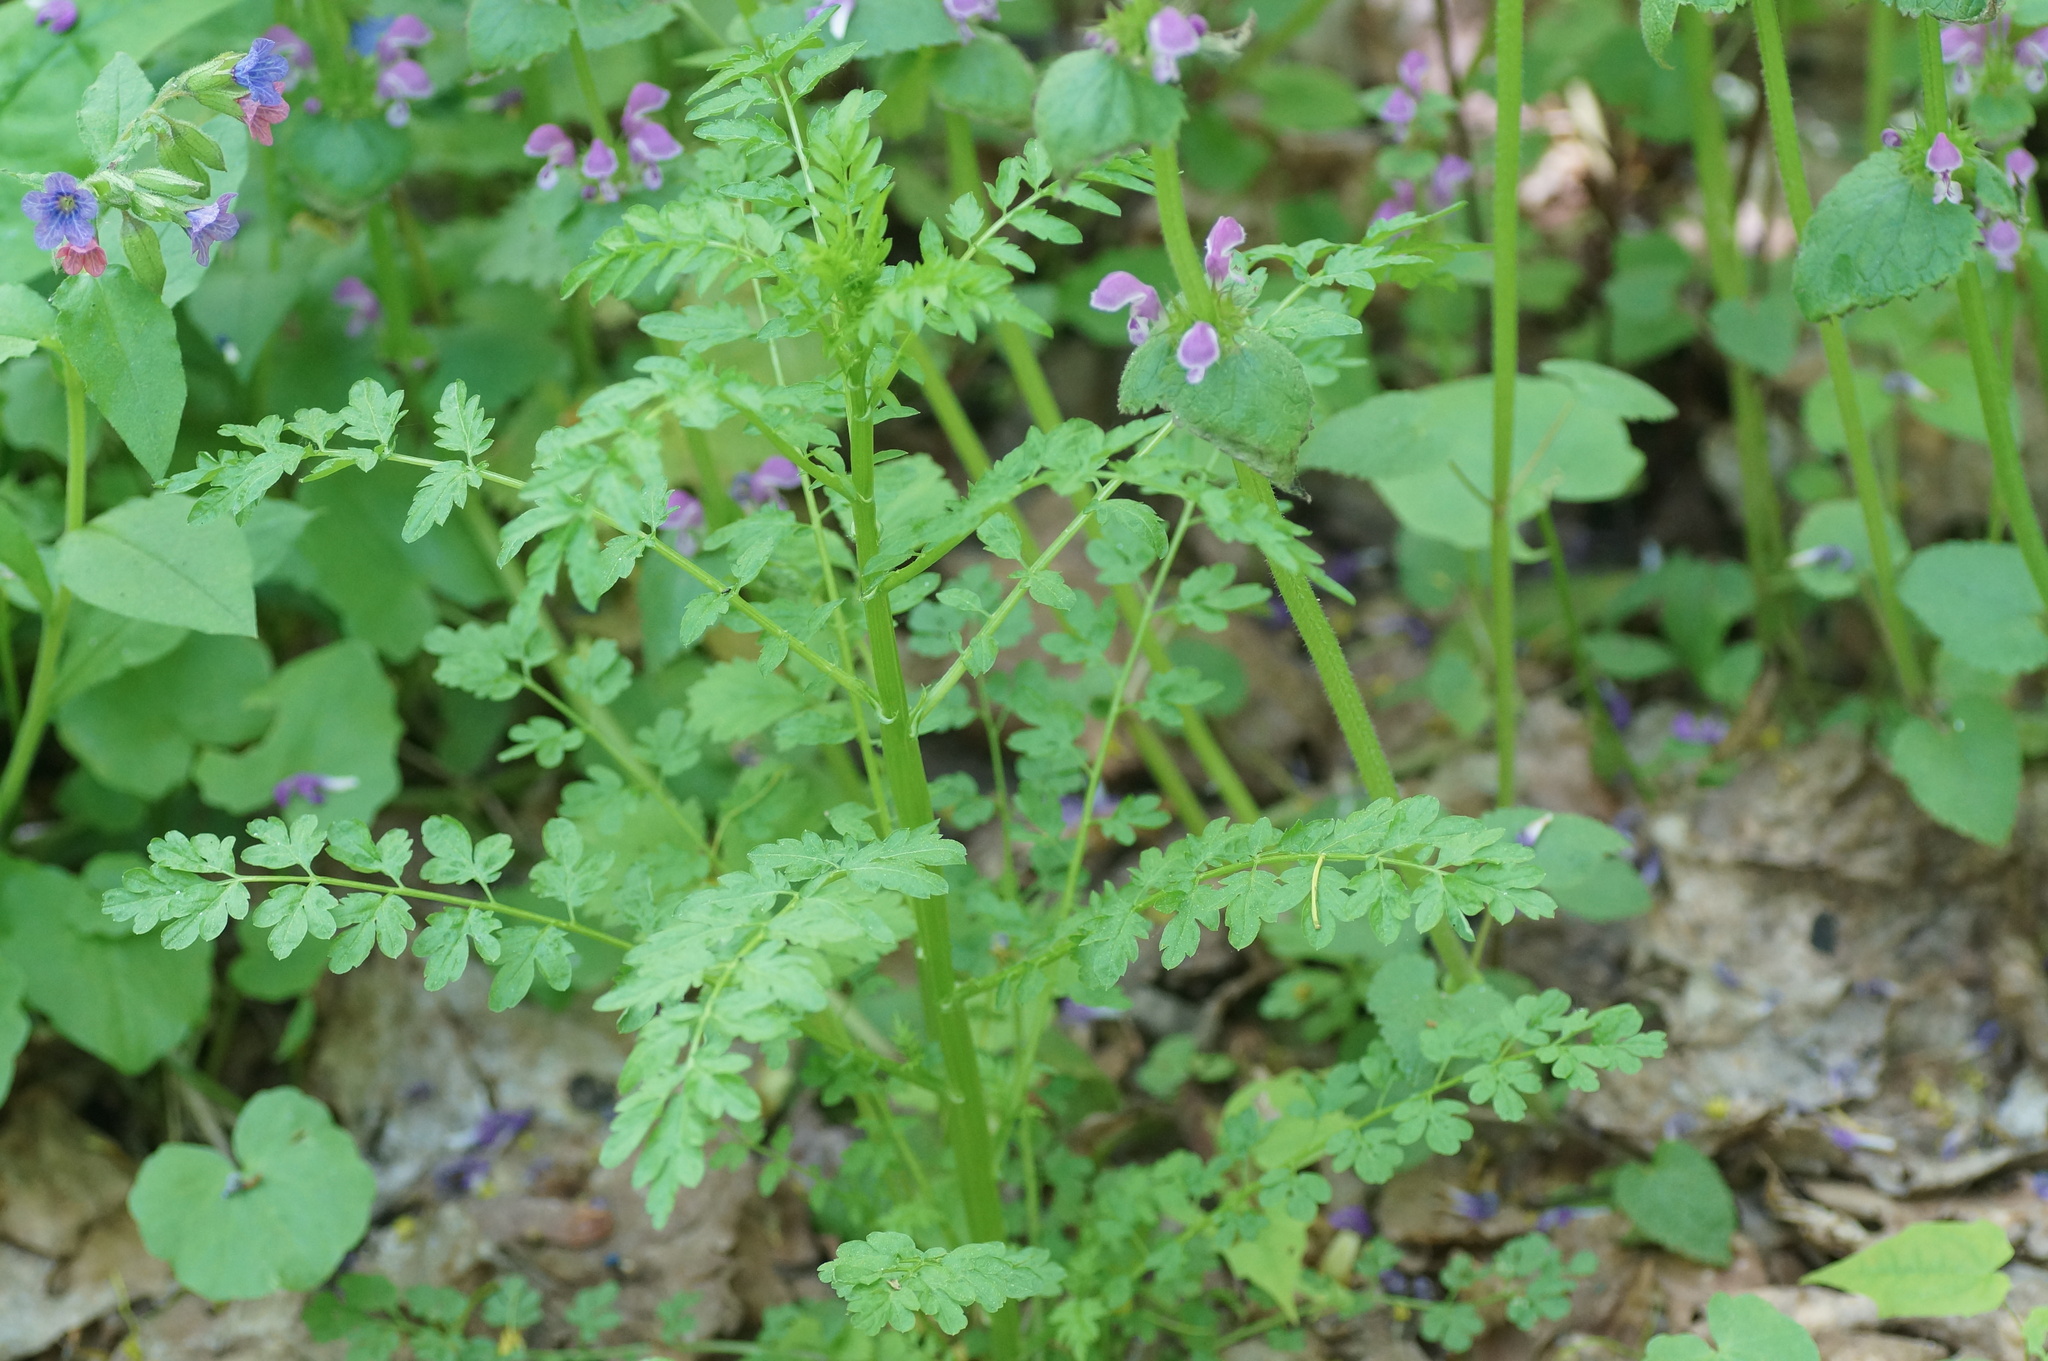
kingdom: Plantae
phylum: Tracheophyta
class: Magnoliopsida
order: Brassicales
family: Brassicaceae
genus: Cardamine
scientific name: Cardamine impatiens
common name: Narrow-leaved bitter-cress
